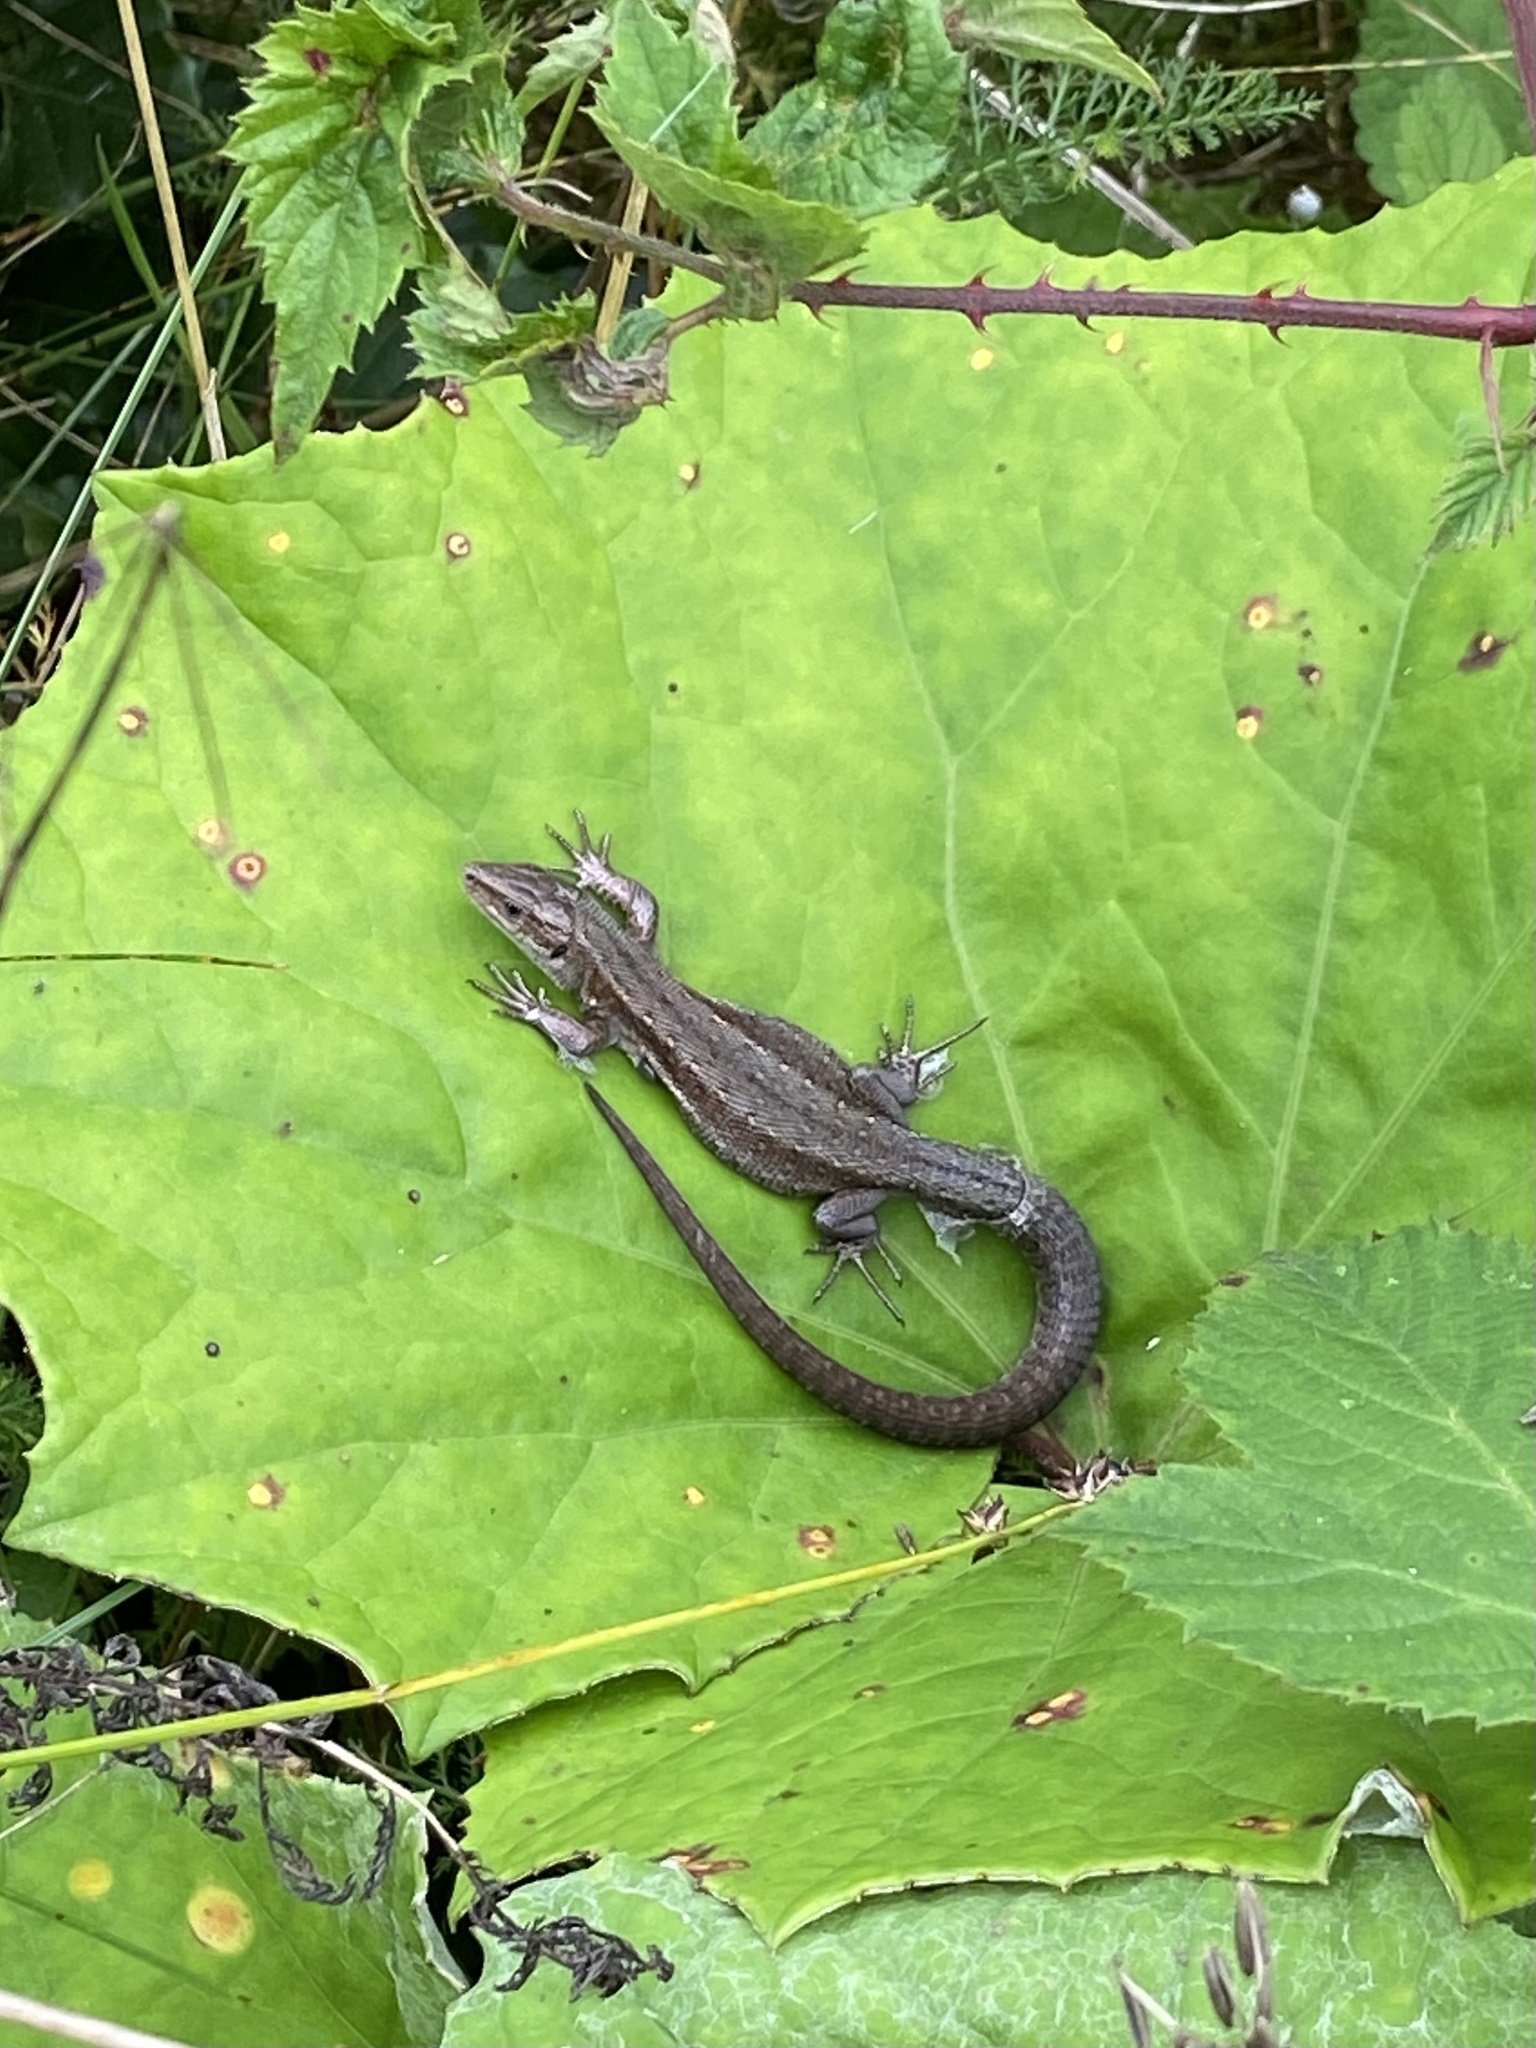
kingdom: Animalia
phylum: Chordata
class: Squamata
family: Lacertidae
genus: Zootoca
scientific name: Zootoca vivipara
